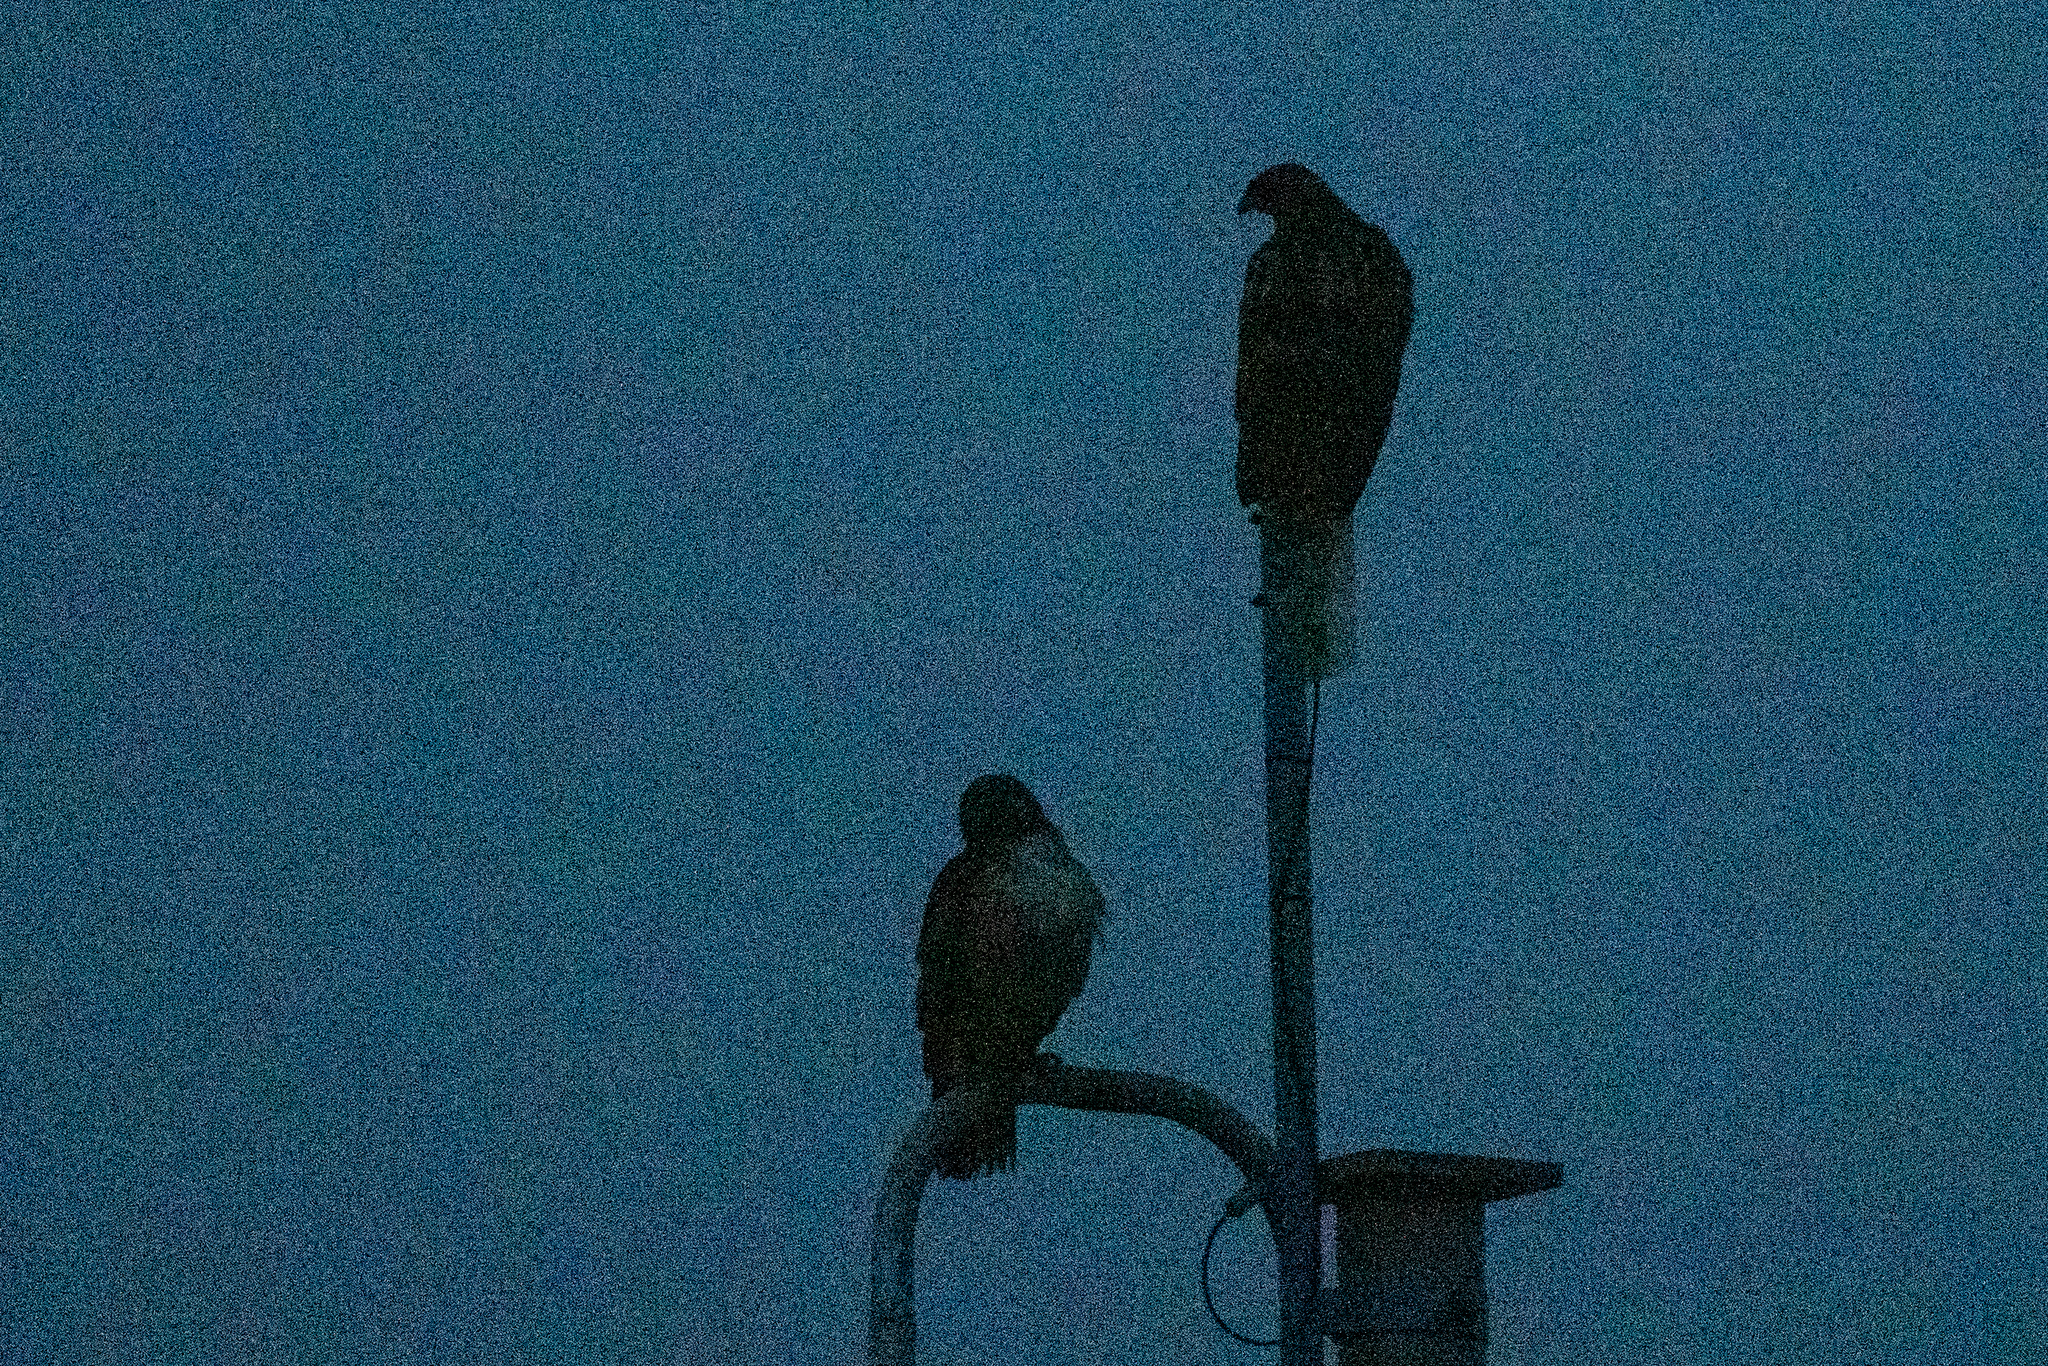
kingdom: Animalia
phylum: Chordata
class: Aves
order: Accipitriformes
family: Accipitridae
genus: Buteo
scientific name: Buteo jamaicensis
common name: Red-tailed hawk
